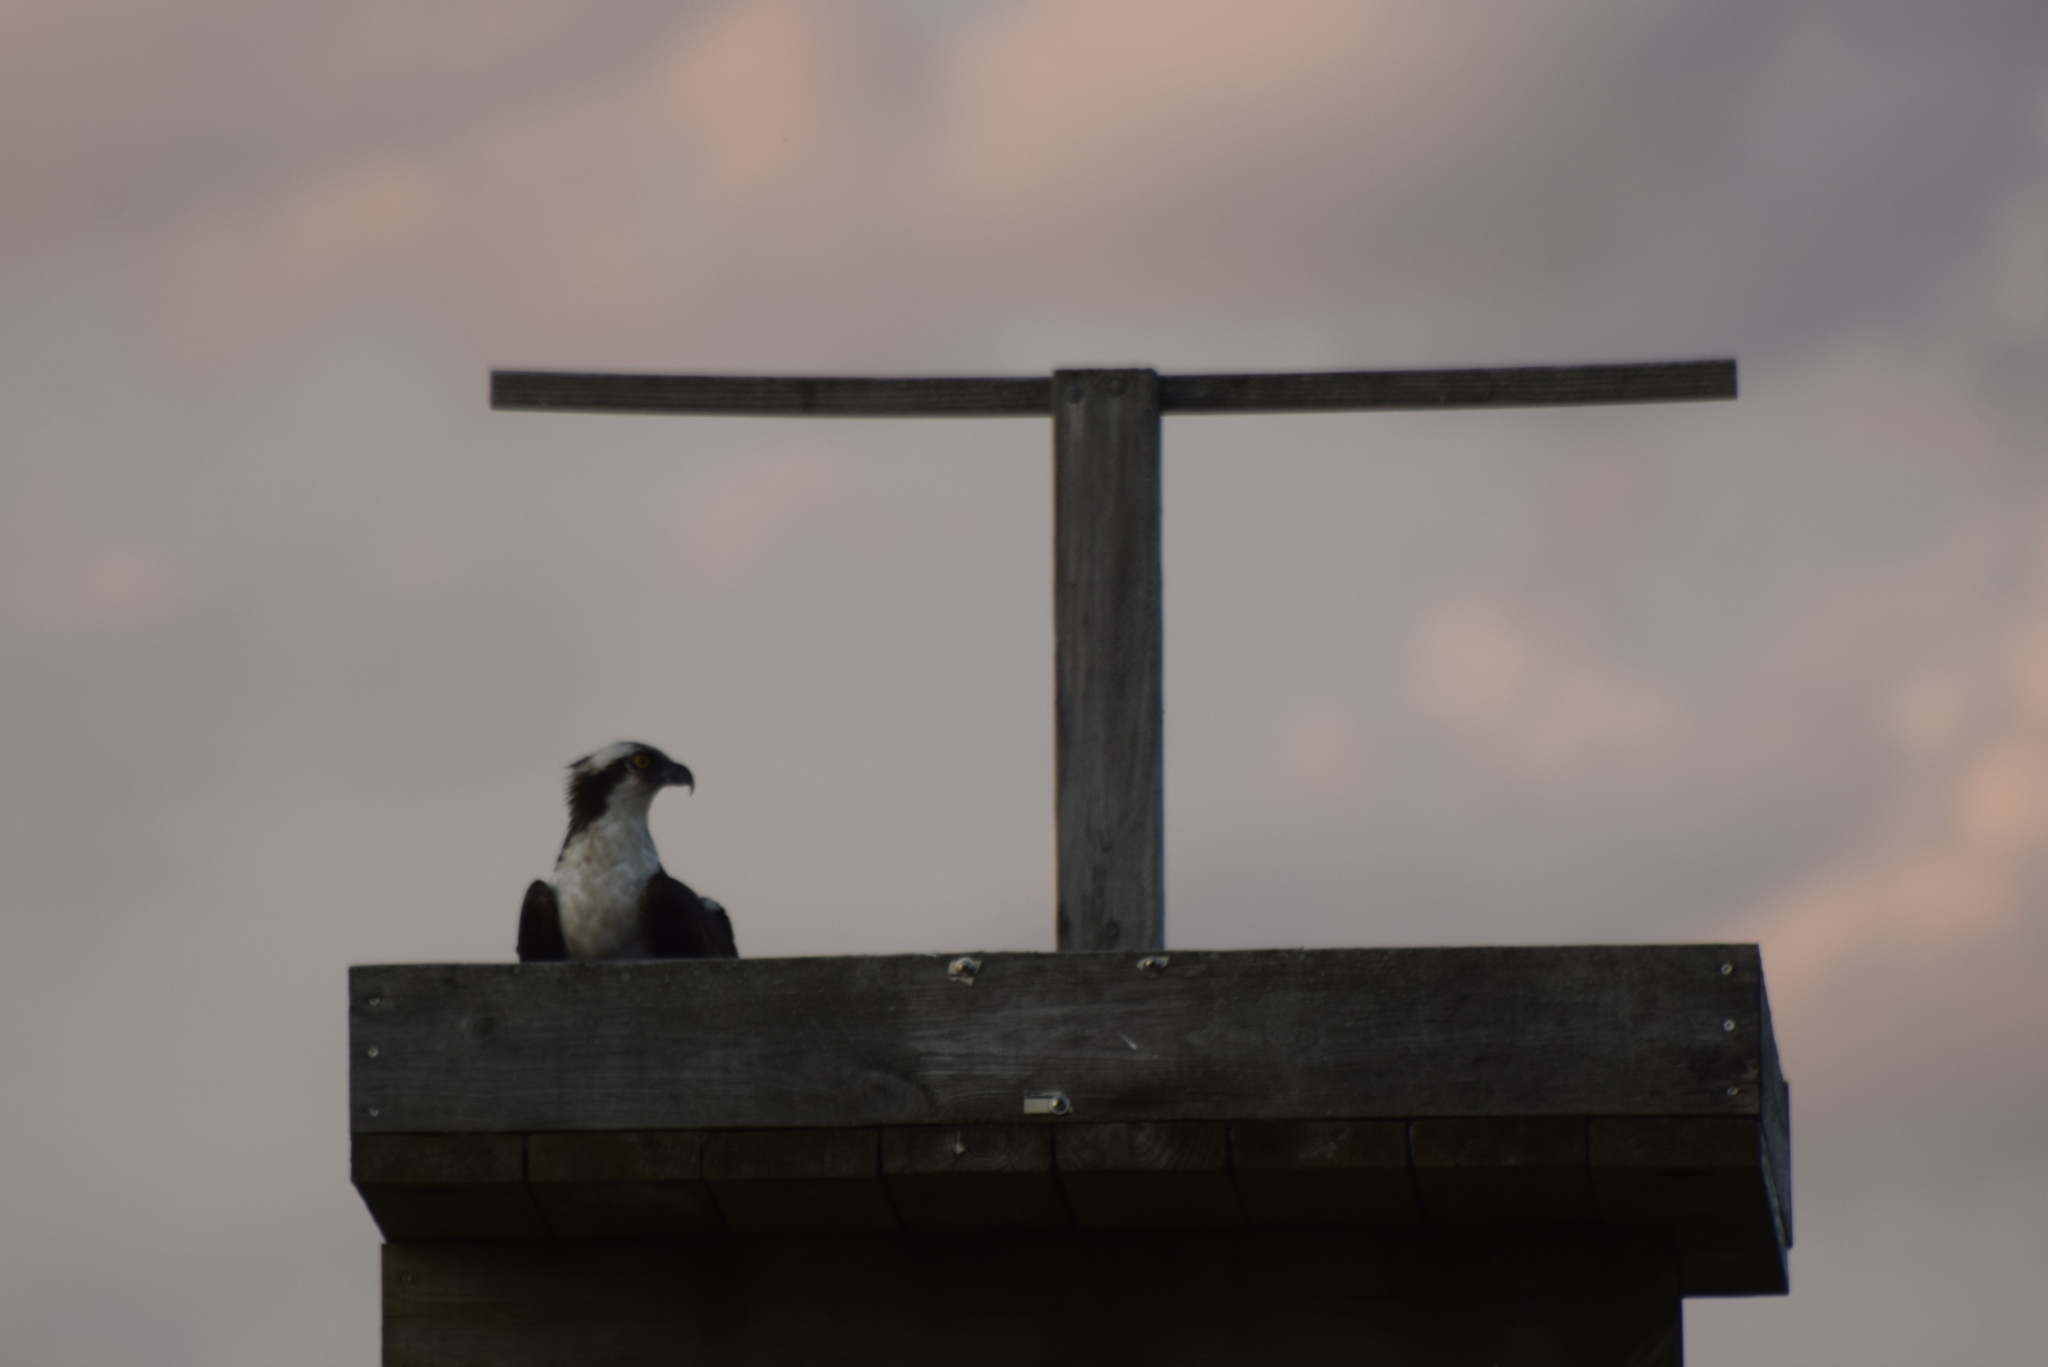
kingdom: Animalia
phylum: Chordata
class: Aves
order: Accipitriformes
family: Pandionidae
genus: Pandion
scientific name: Pandion haliaetus
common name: Osprey
